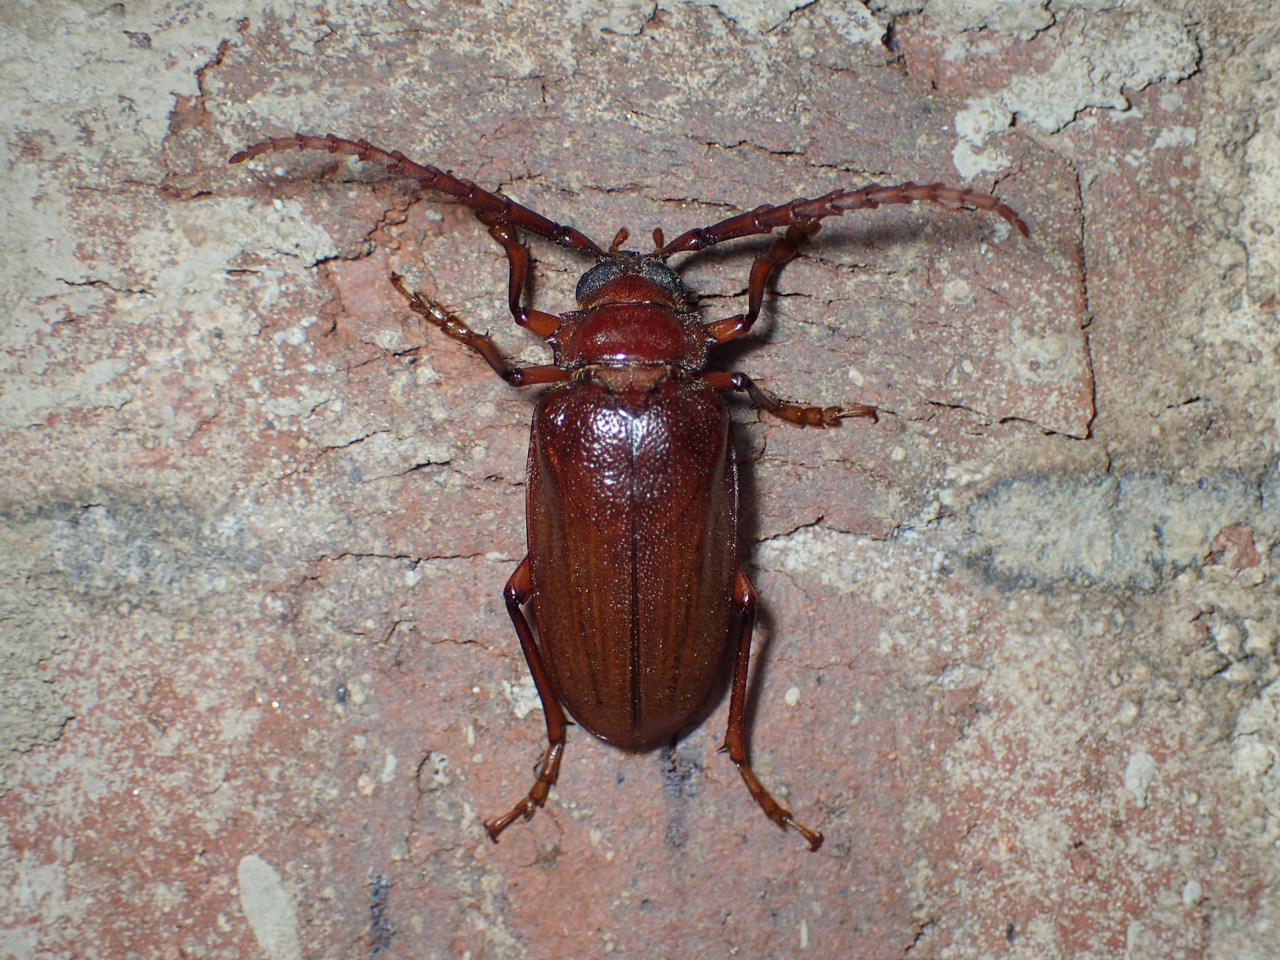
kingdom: Animalia
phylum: Arthropoda
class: Insecta
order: Coleoptera
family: Cerambycidae
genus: Prionus
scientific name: Prionus pocularis
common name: Tooth-necked longhorn beetle
